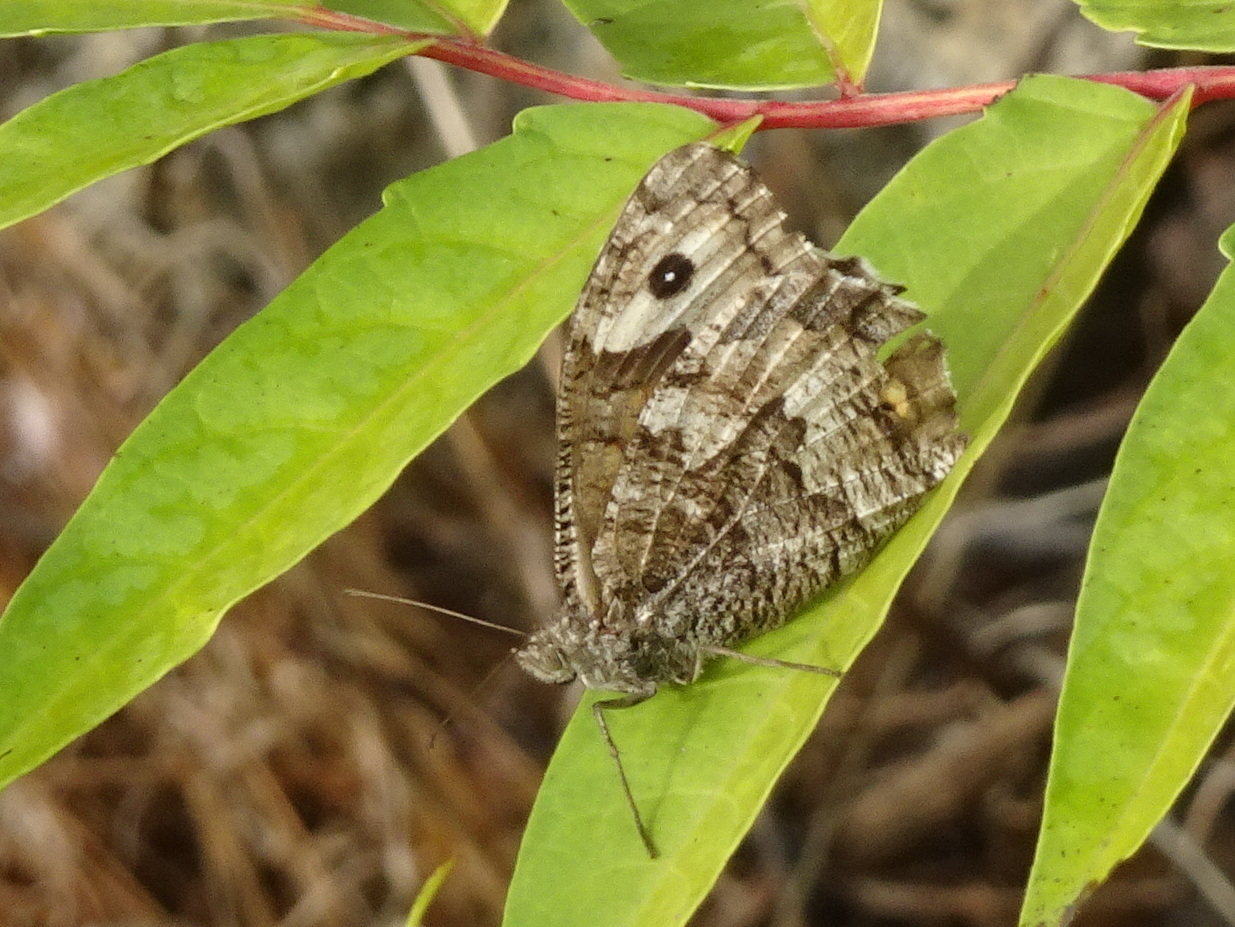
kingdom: Animalia
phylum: Arthropoda
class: Insecta
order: Lepidoptera
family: Nymphalidae
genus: Hipparchia
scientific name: Hipparchia semele
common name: Grayling
